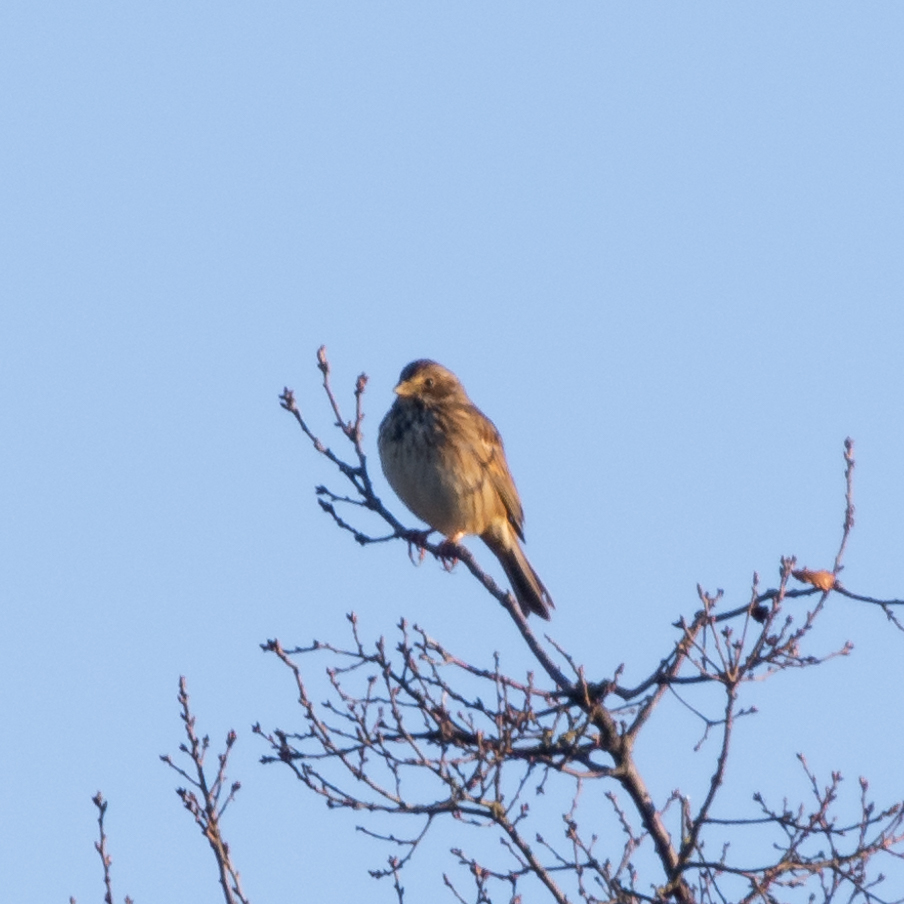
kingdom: Animalia
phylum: Chordata
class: Aves
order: Passeriformes
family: Emberizidae
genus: Emberiza
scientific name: Emberiza calandra
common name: Corn bunting
